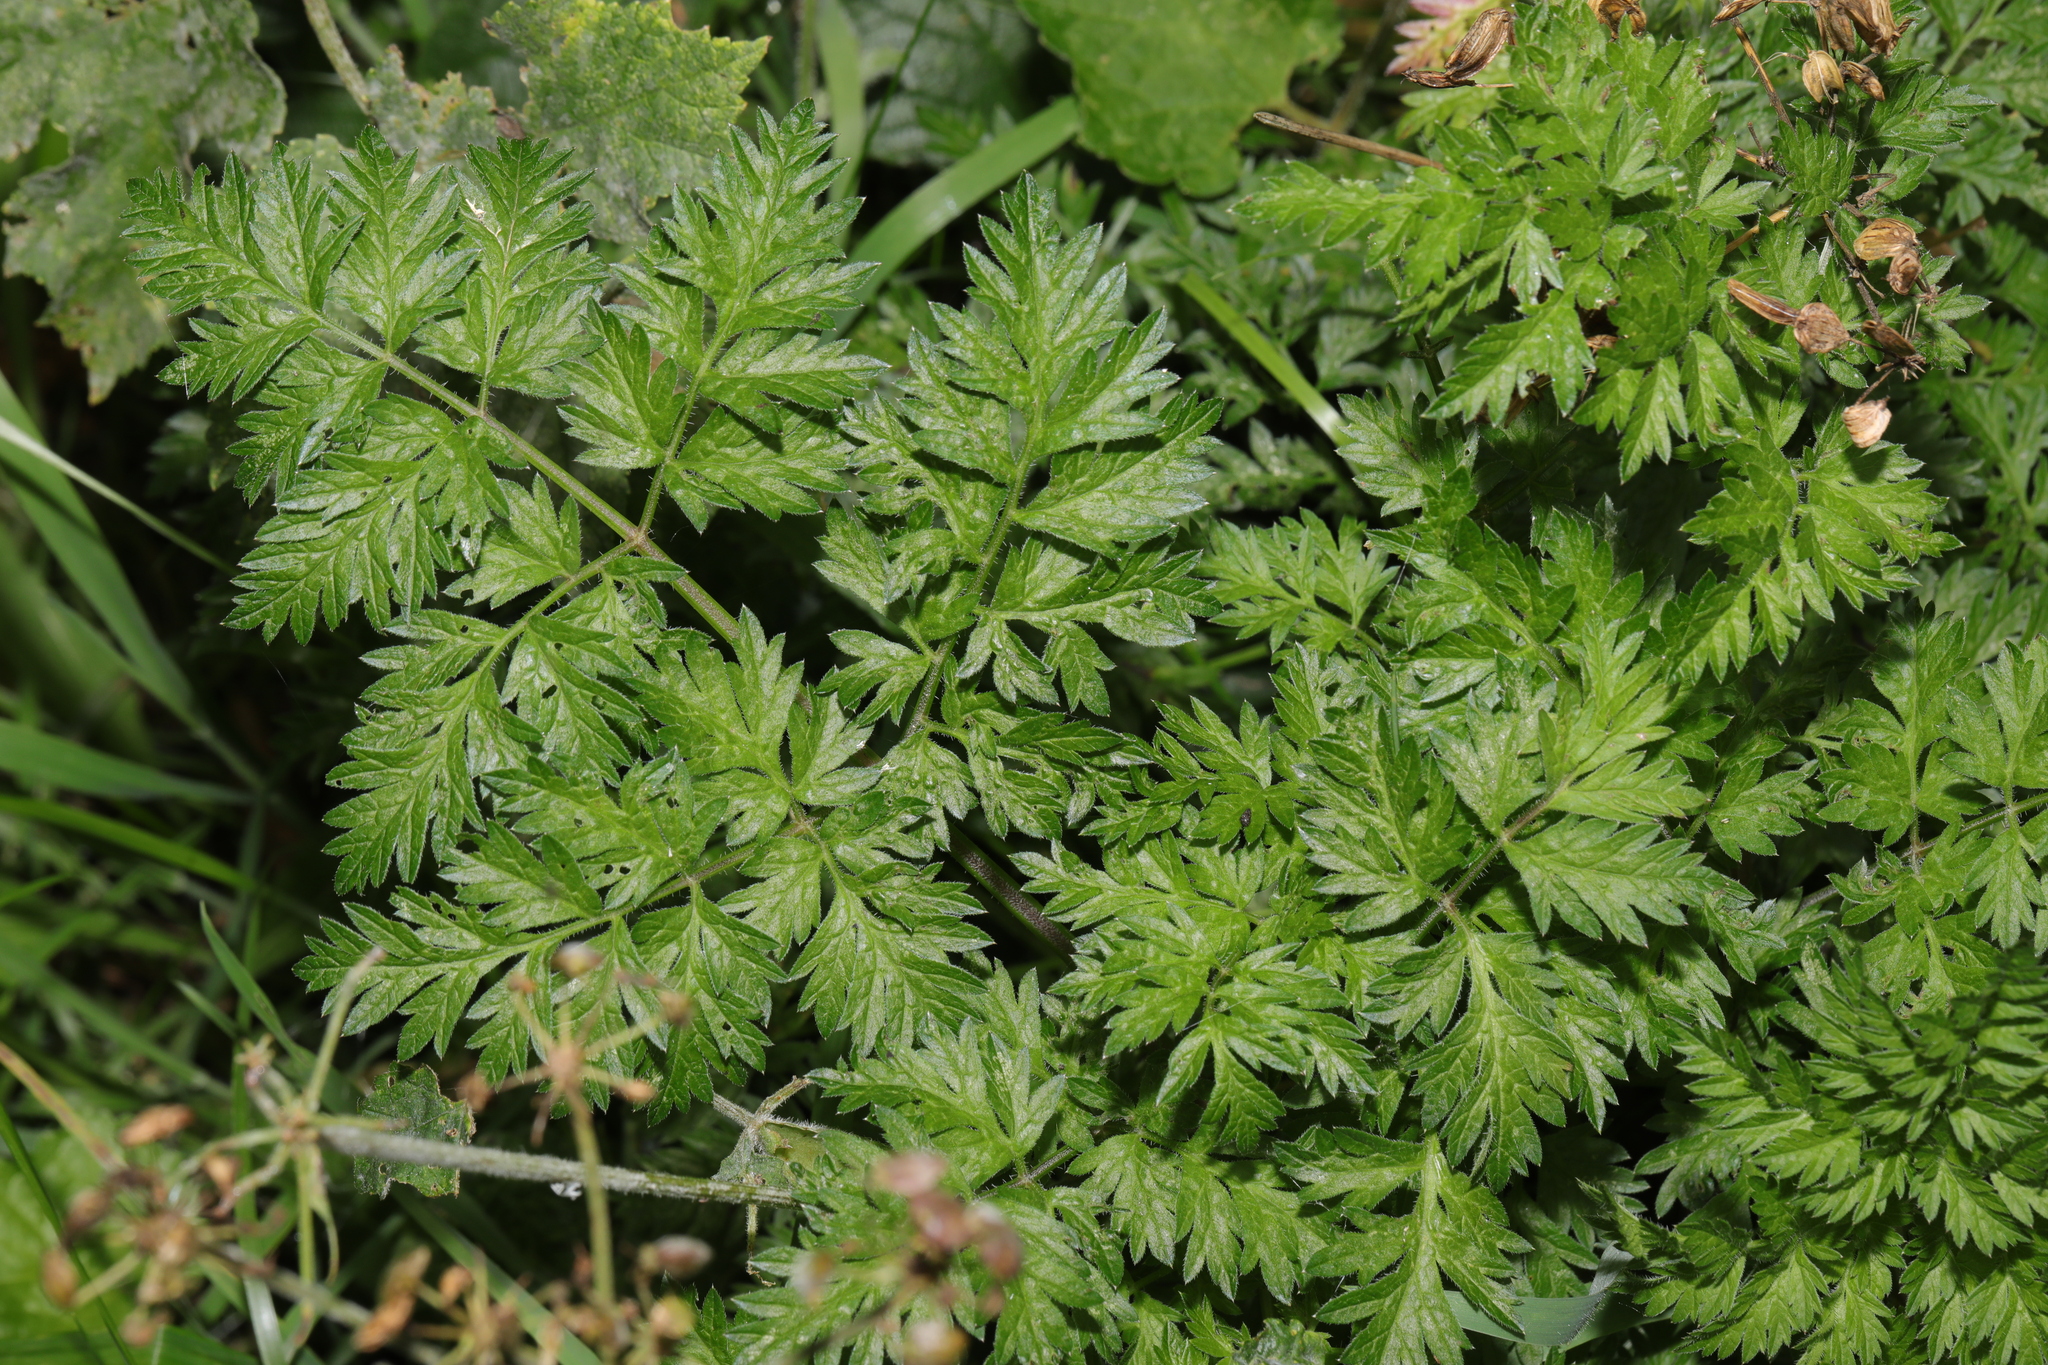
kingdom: Plantae
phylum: Tracheophyta
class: Magnoliopsida
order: Apiales
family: Apiaceae
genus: Anthriscus
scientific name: Anthriscus sylvestris
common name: Cow parsley
